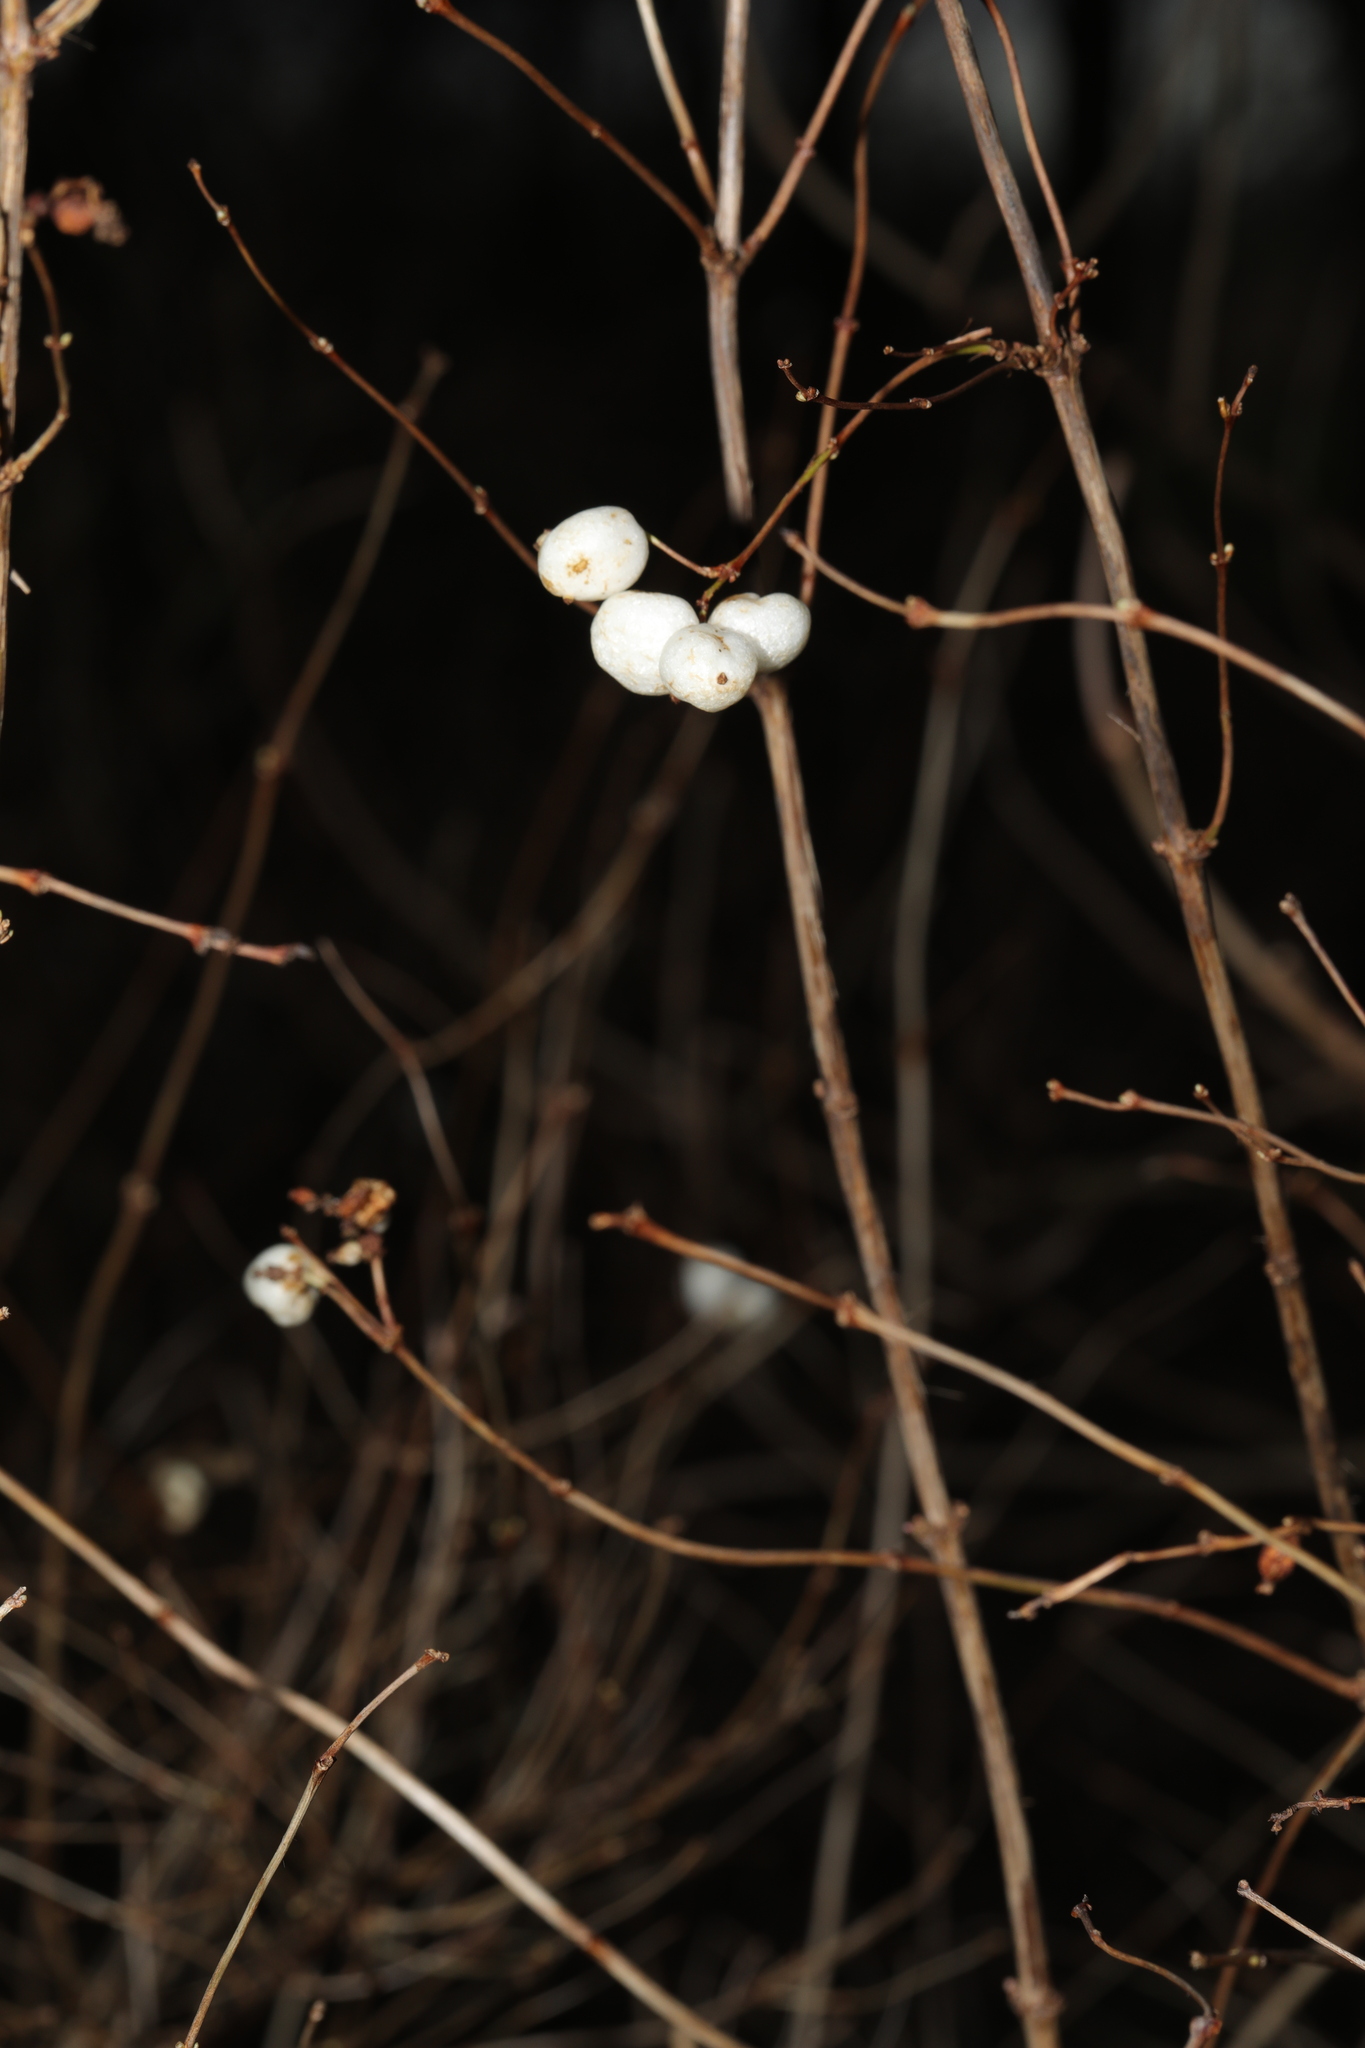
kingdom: Plantae
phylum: Tracheophyta
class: Magnoliopsida
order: Dipsacales
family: Caprifoliaceae
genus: Symphoricarpos
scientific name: Symphoricarpos albus
